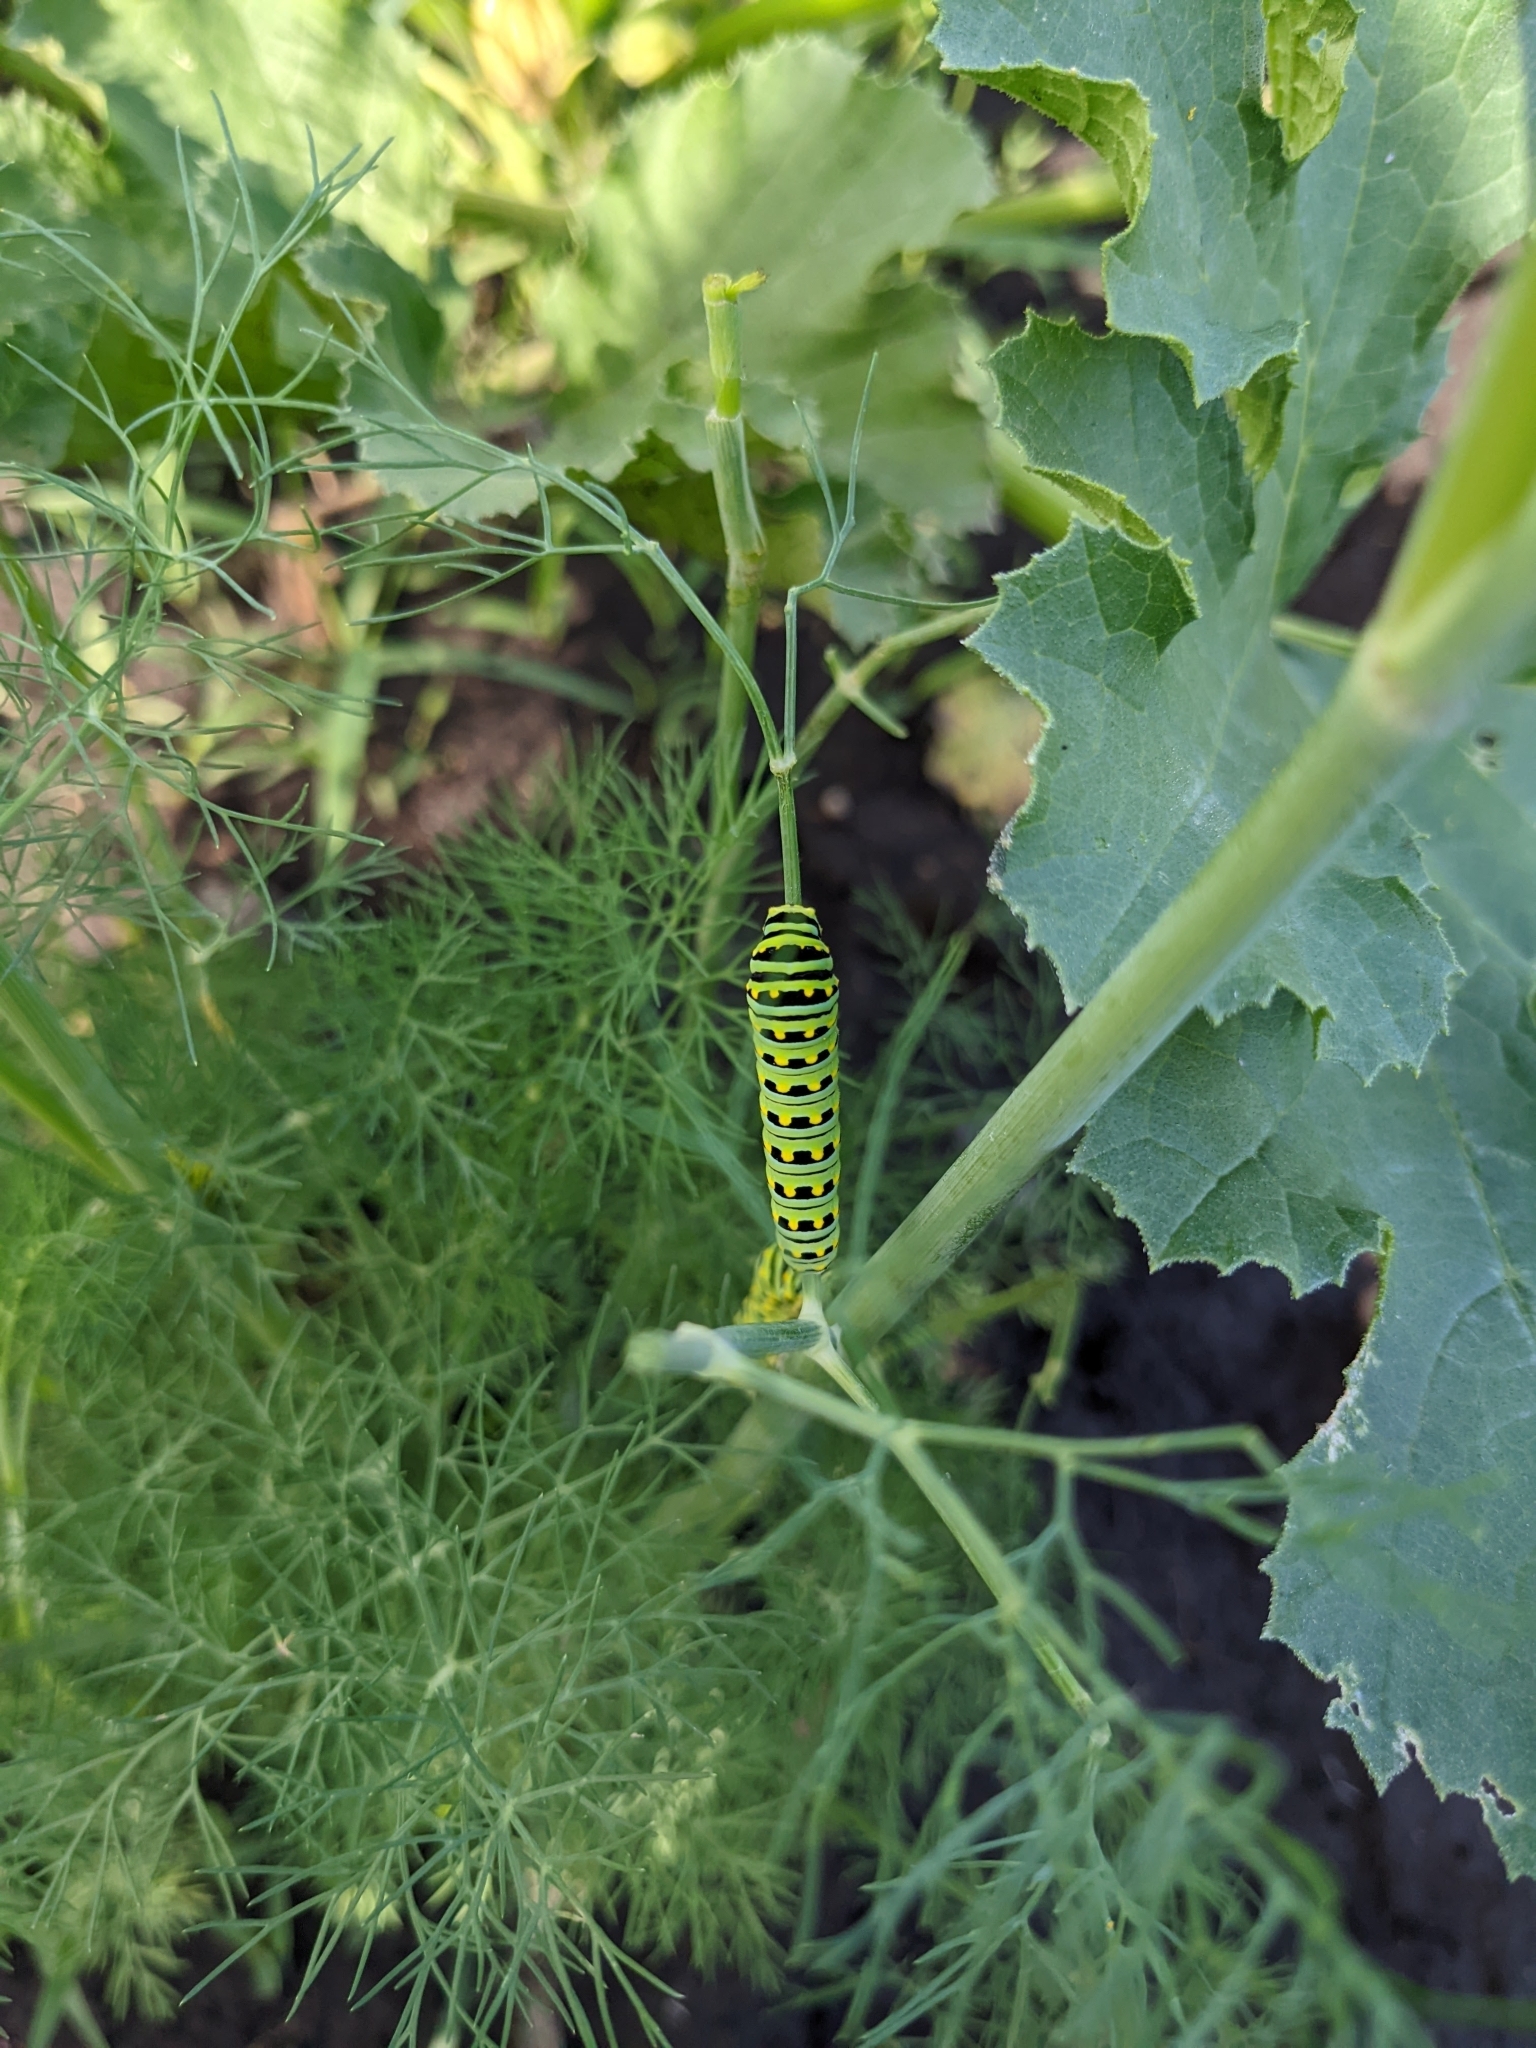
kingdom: Animalia
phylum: Arthropoda
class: Insecta
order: Lepidoptera
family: Papilionidae
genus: Papilio
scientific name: Papilio polyxenes
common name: Black swallowtail
